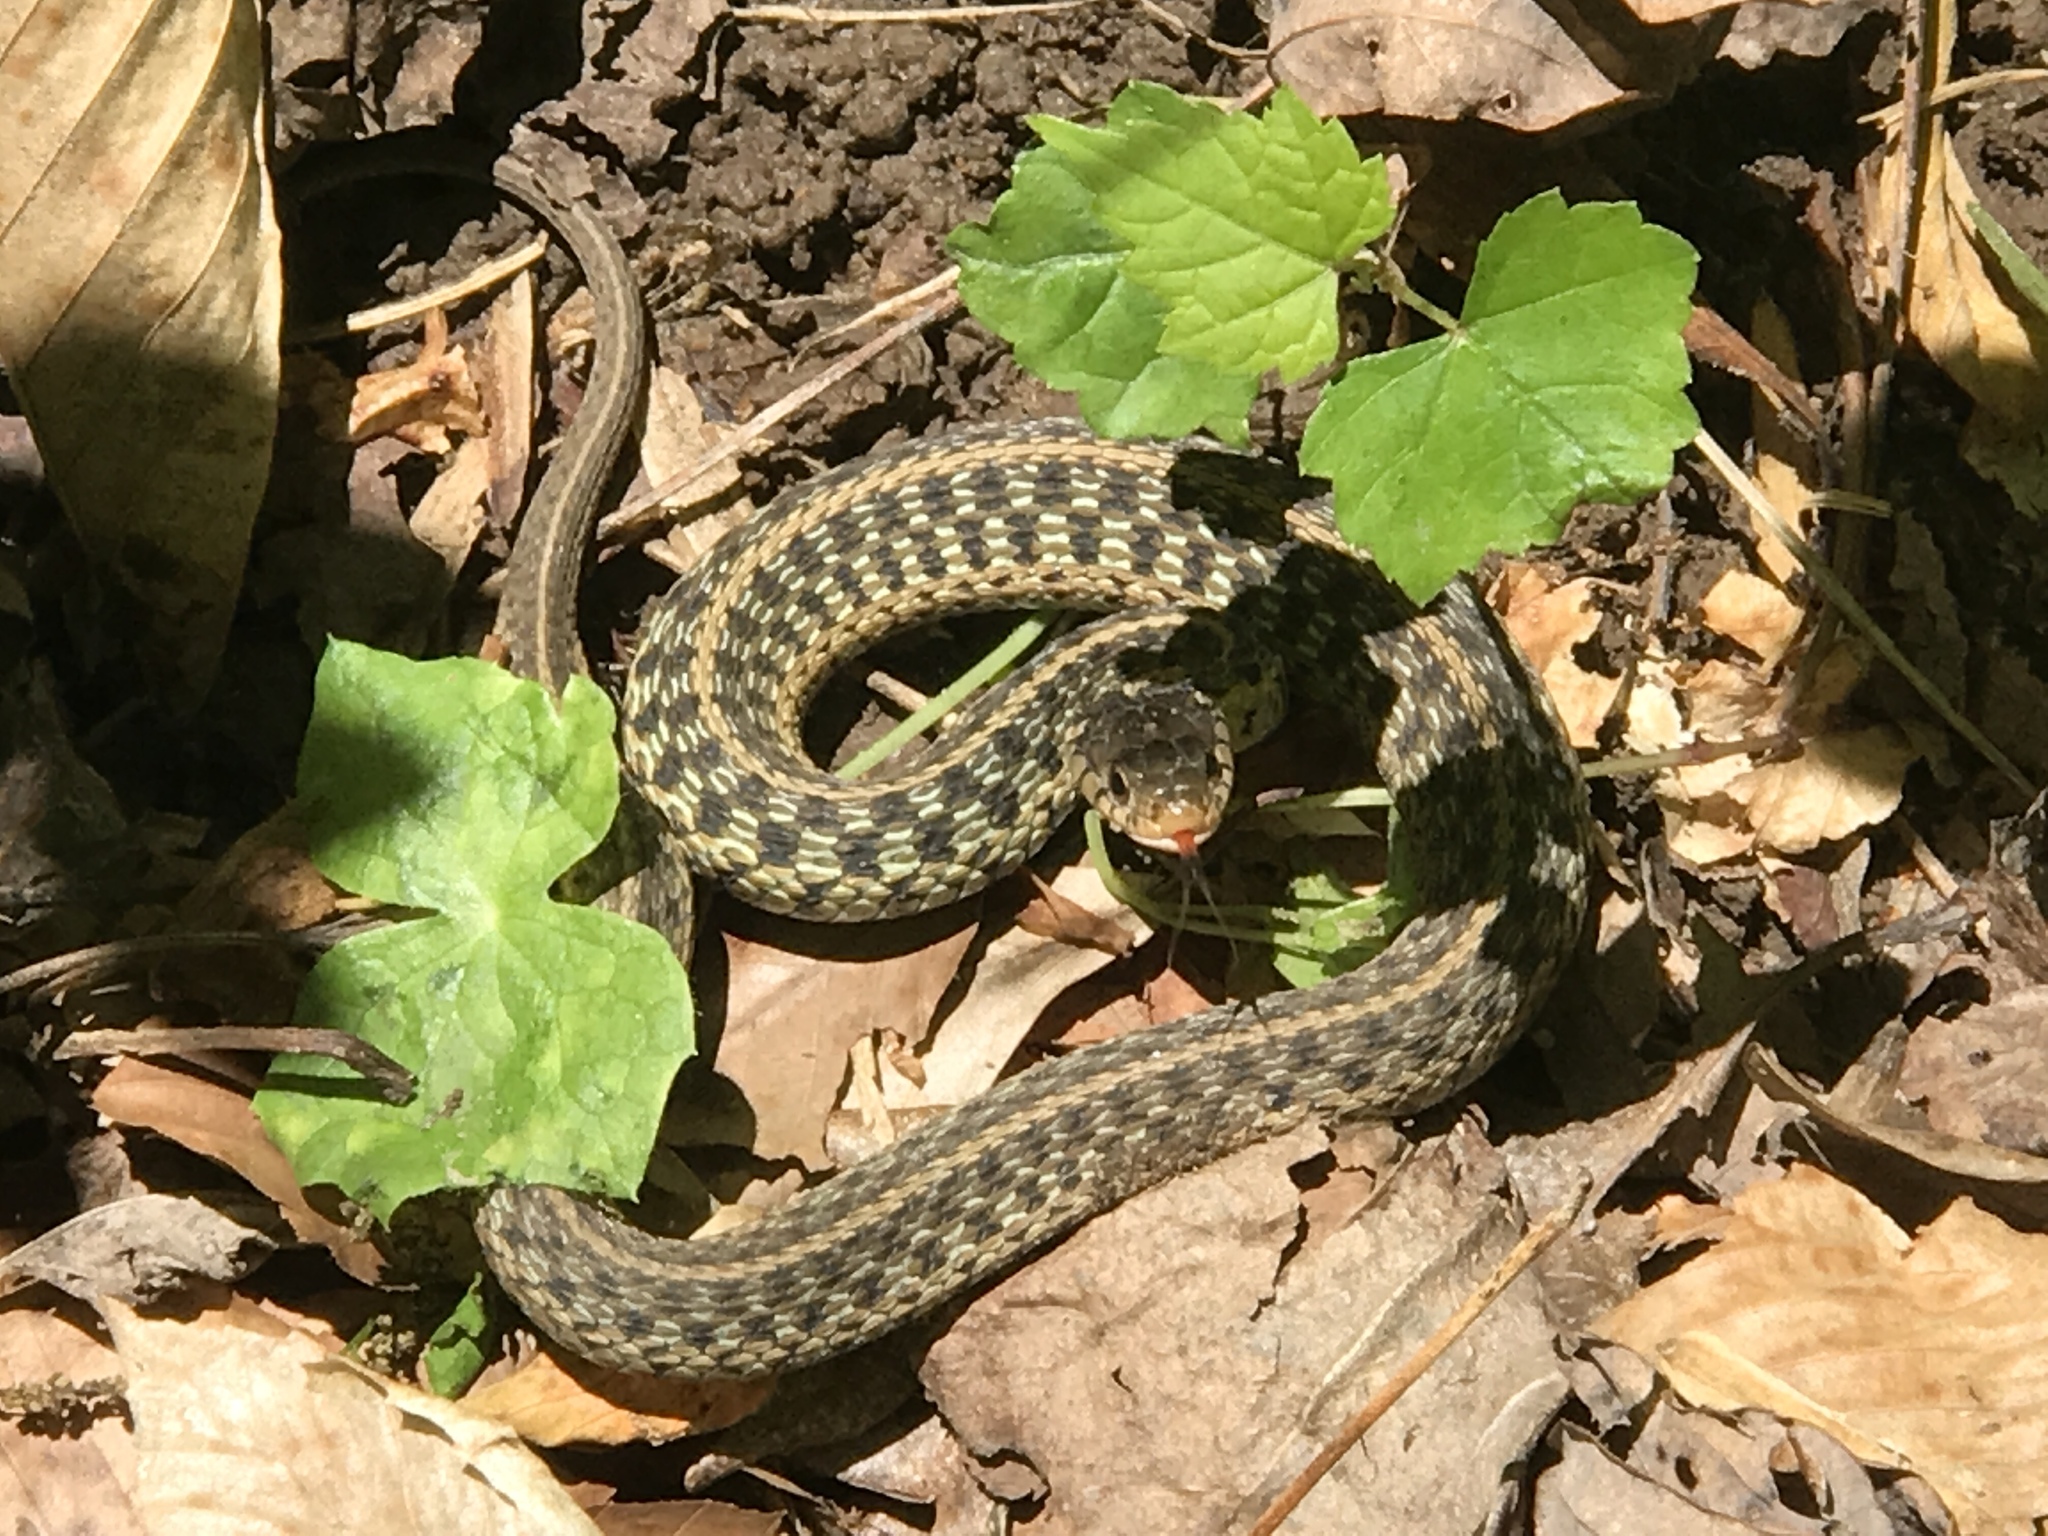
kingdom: Animalia
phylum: Chordata
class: Squamata
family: Colubridae
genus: Thamnophis
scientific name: Thamnophis sirtalis
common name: Common garter snake
